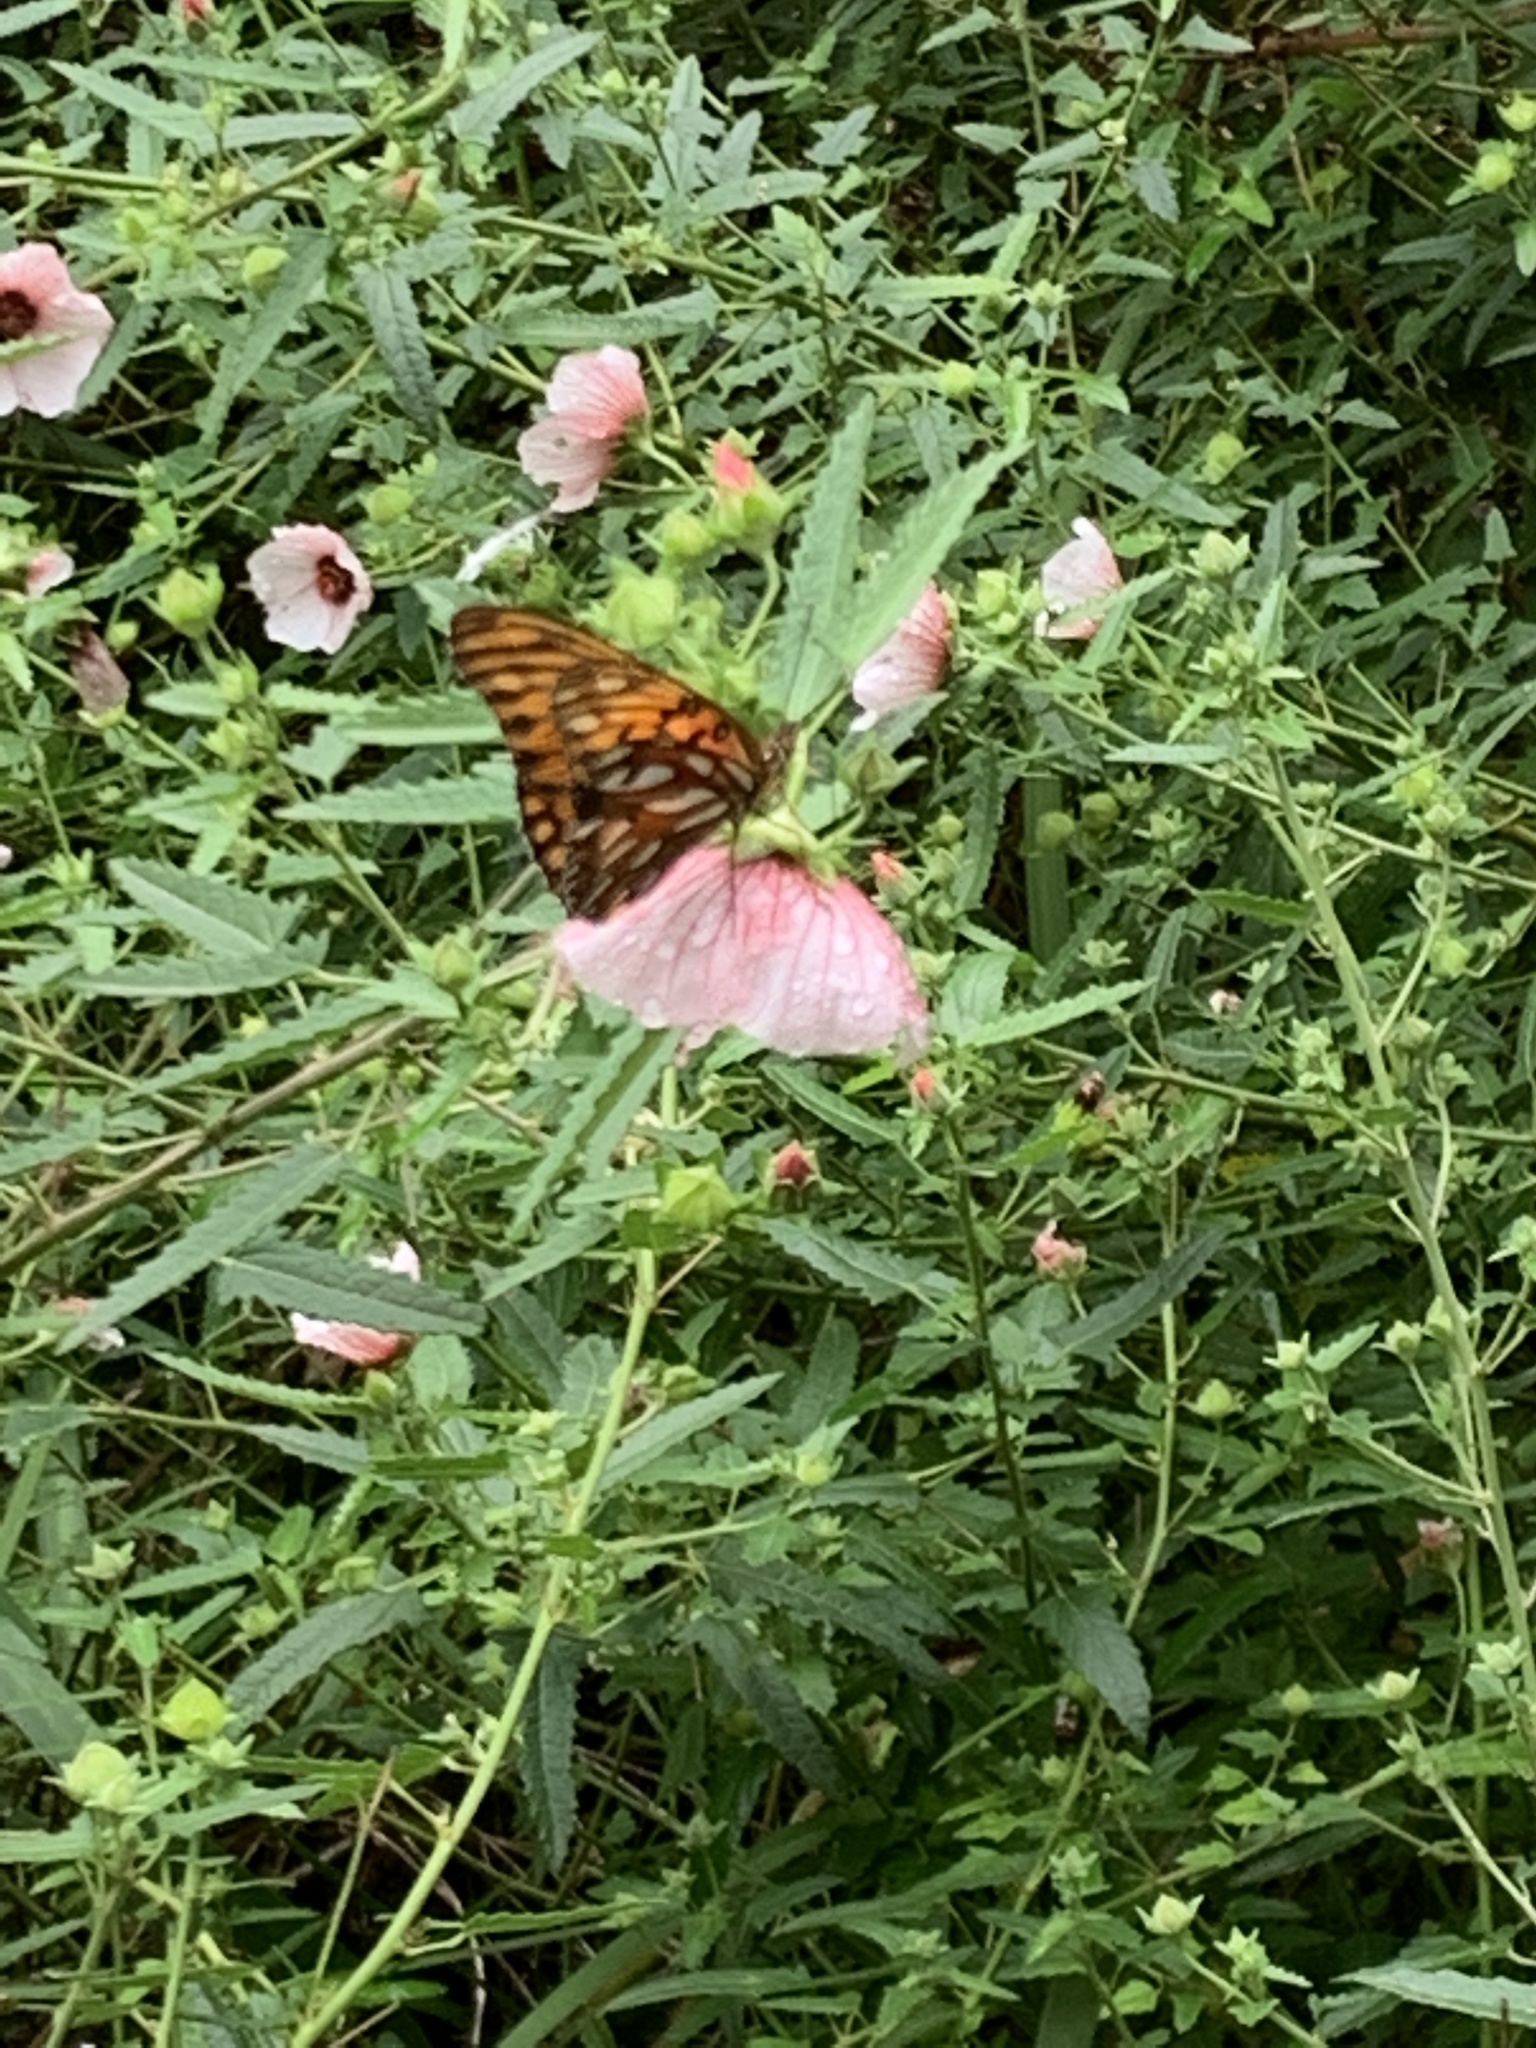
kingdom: Animalia
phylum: Arthropoda
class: Insecta
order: Lepidoptera
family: Nymphalidae
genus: Dione
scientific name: Dione vanillae
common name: Gulf fritillary
